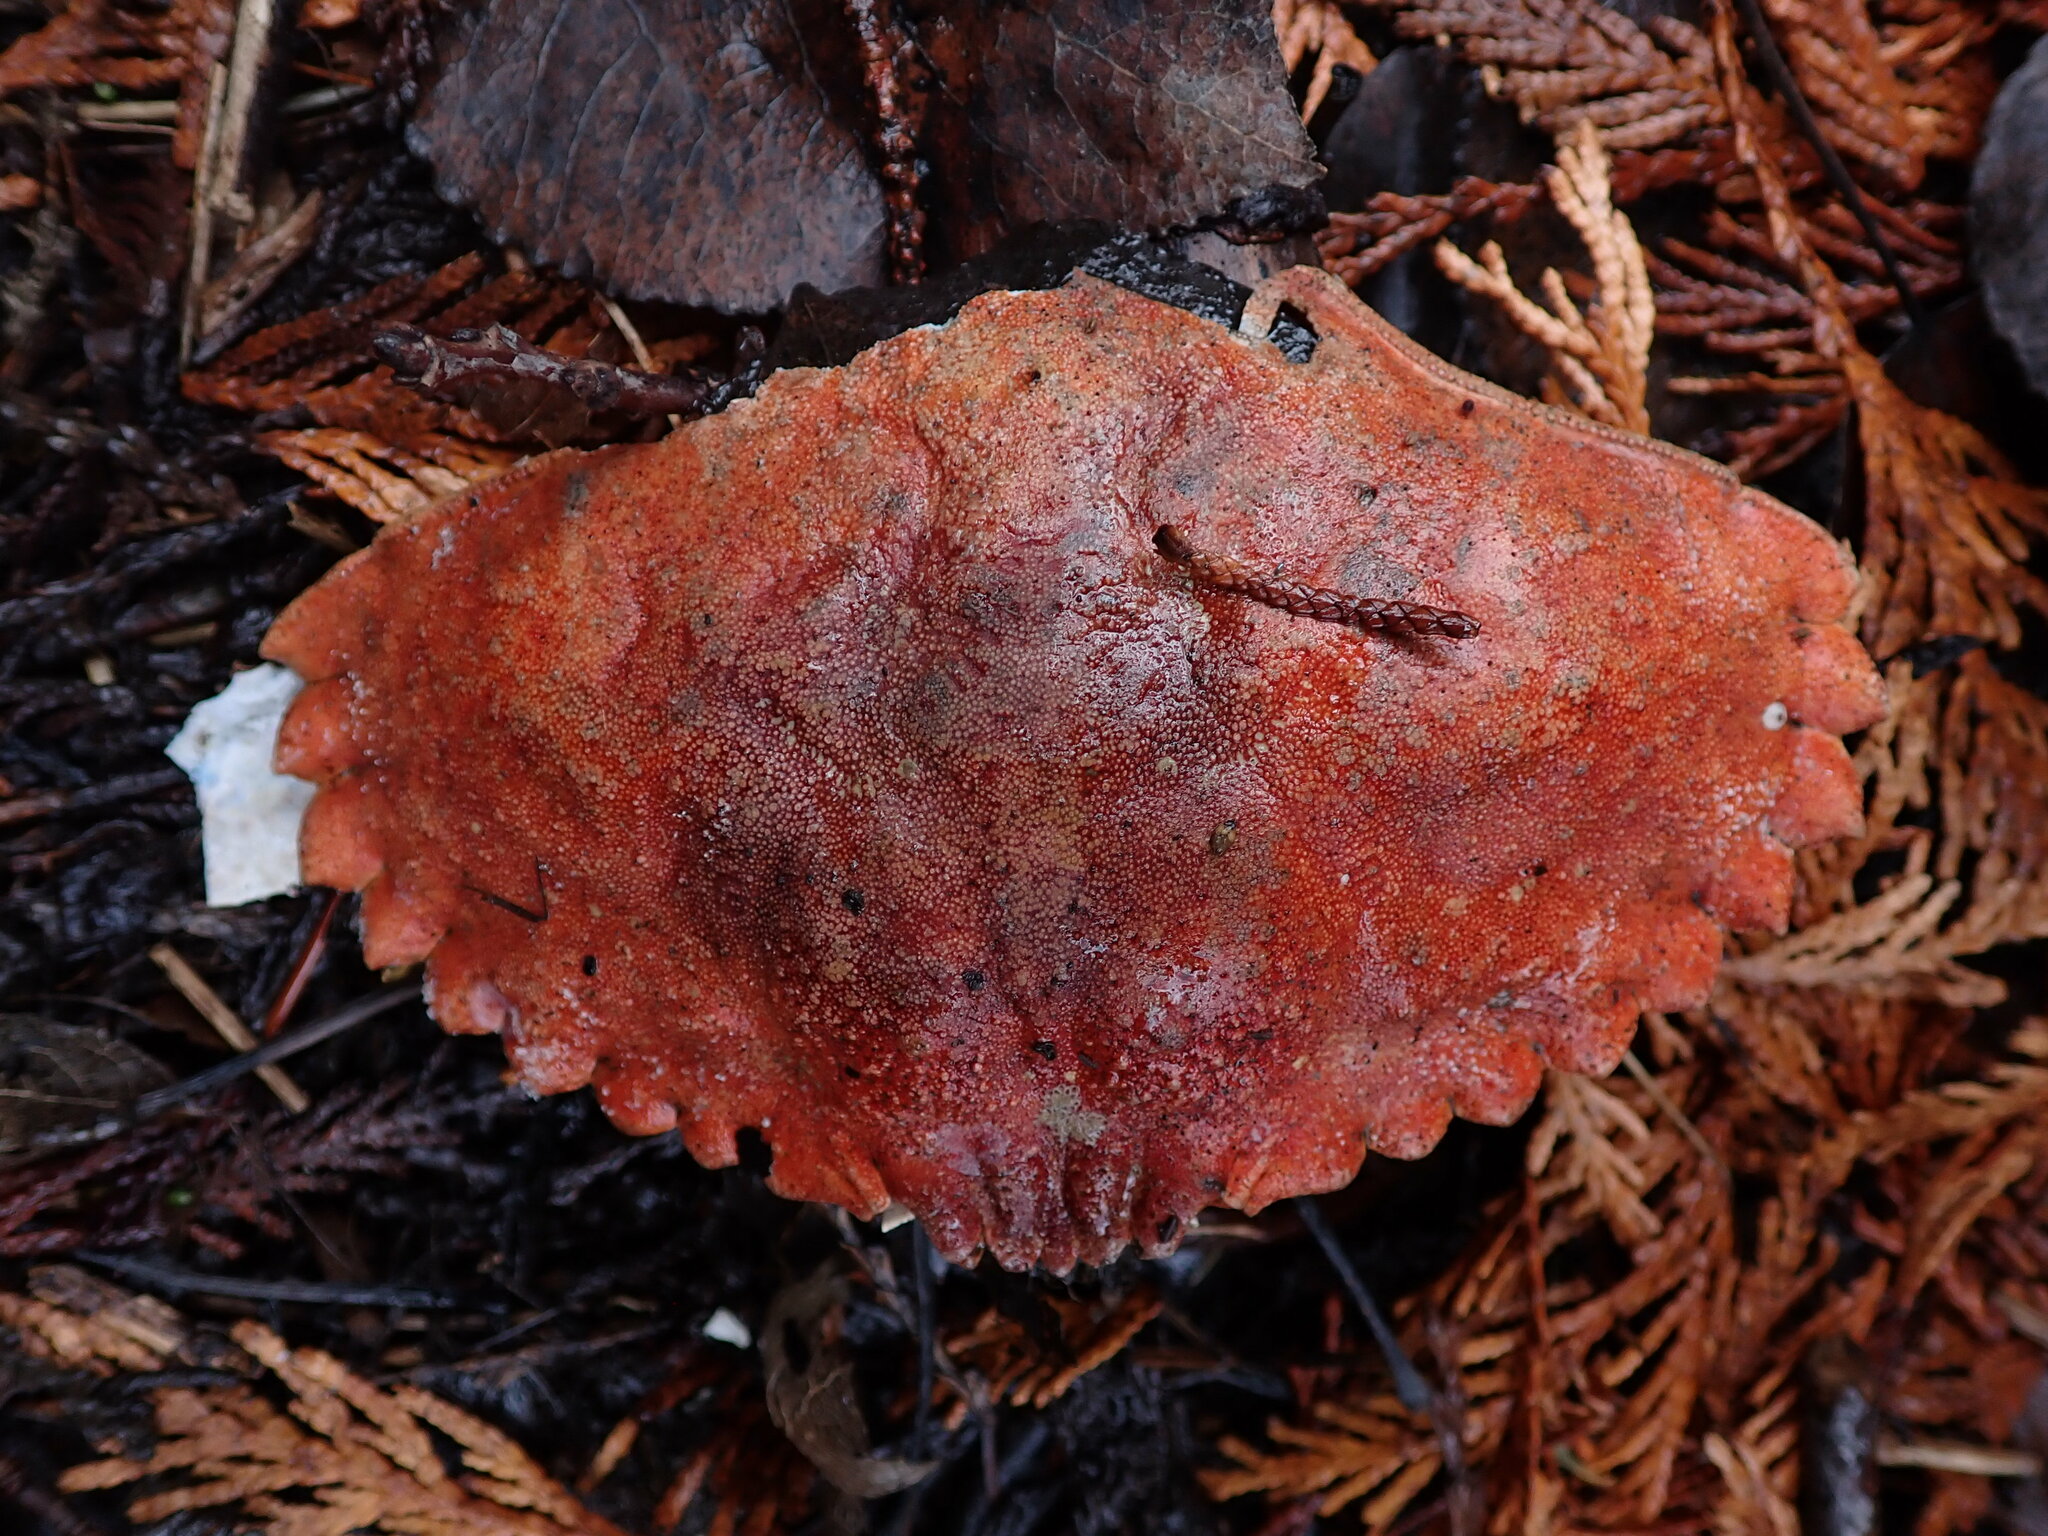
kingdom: Animalia
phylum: Arthropoda
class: Malacostraca
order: Decapoda
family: Cancridae
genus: Cancer
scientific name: Cancer productus
